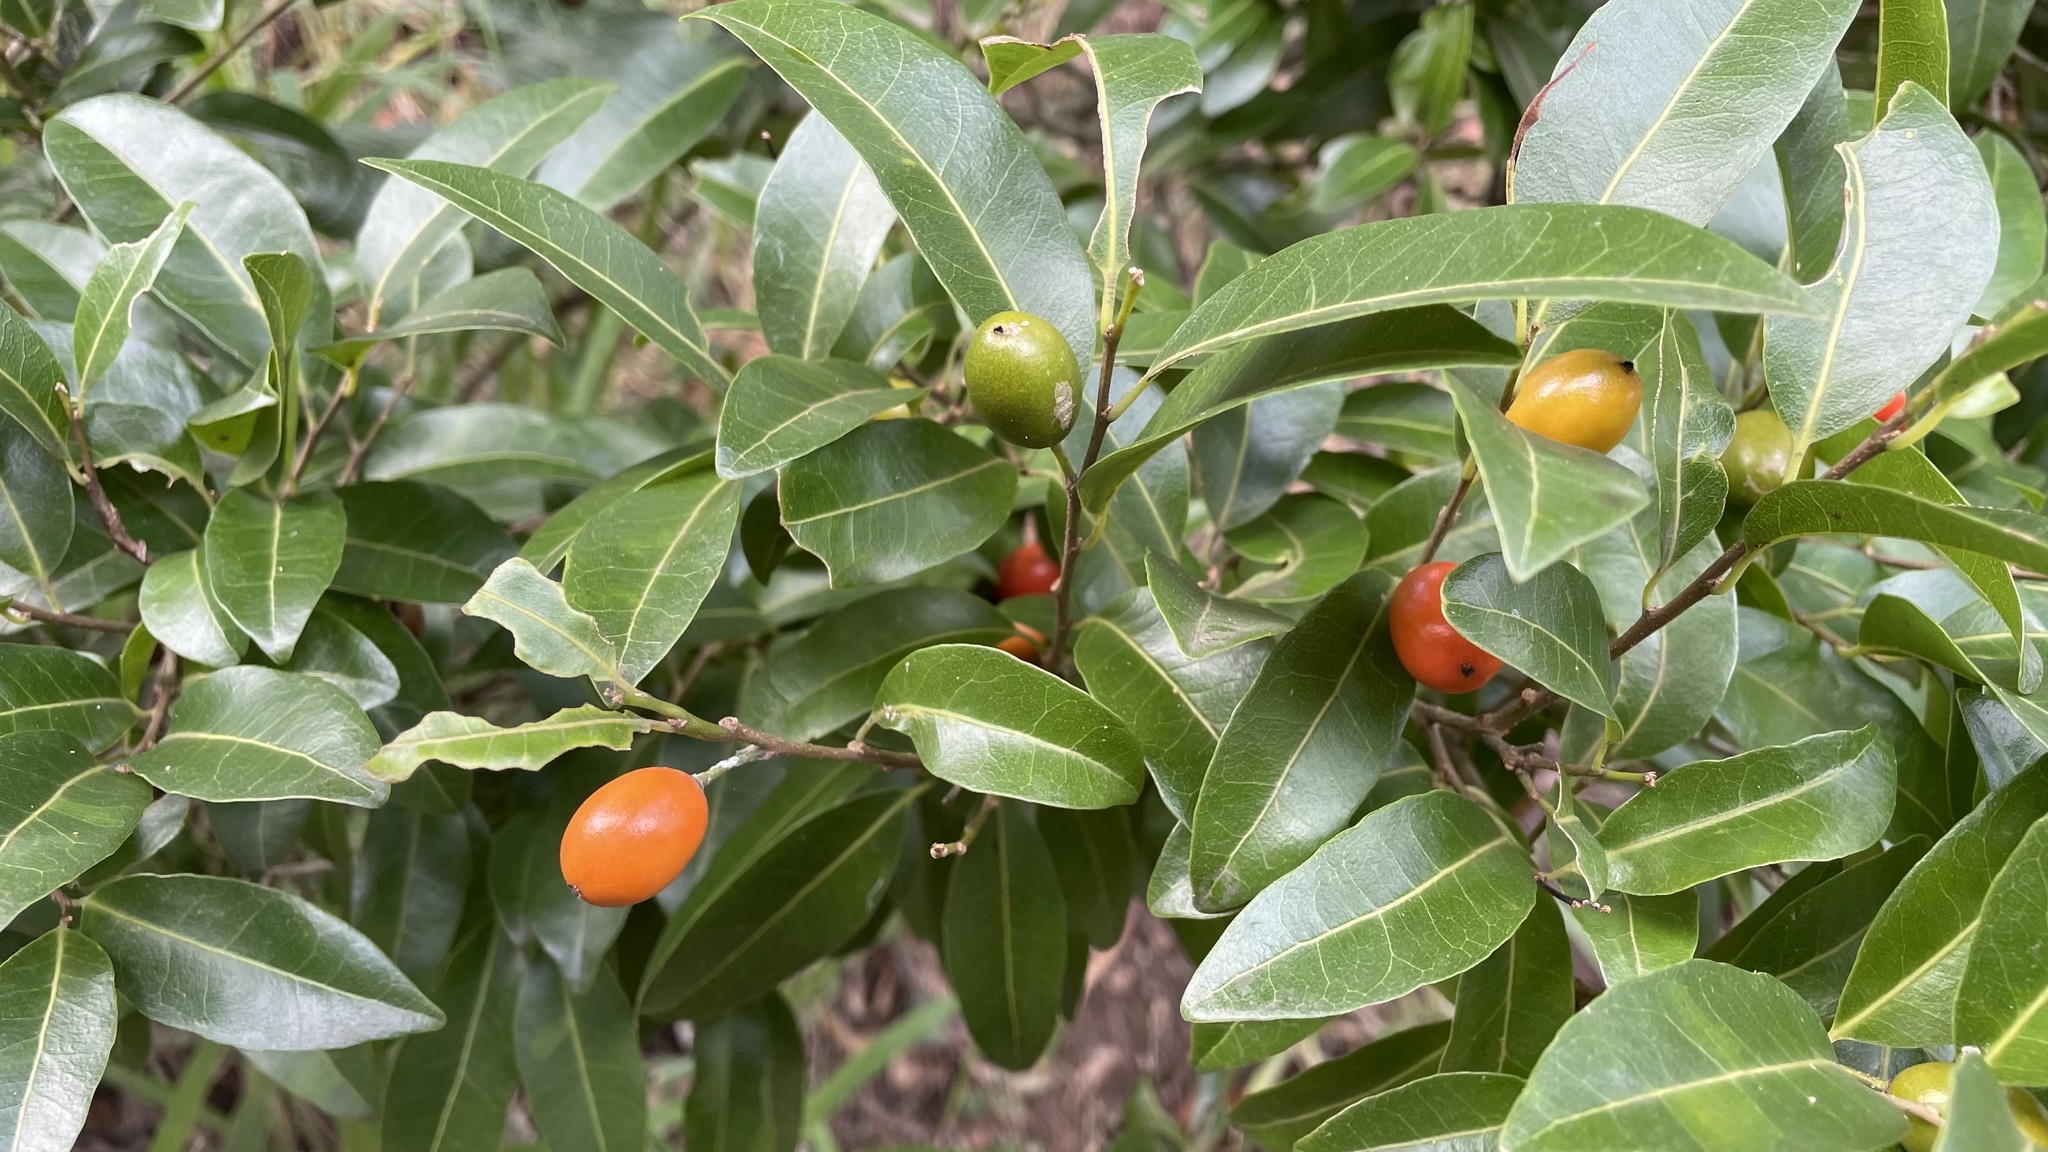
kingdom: Plantae
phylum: Tracheophyta
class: Magnoliopsida
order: Malpighiales
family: Putranjivaceae
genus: Drypetes
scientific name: Drypetes deplanchei
